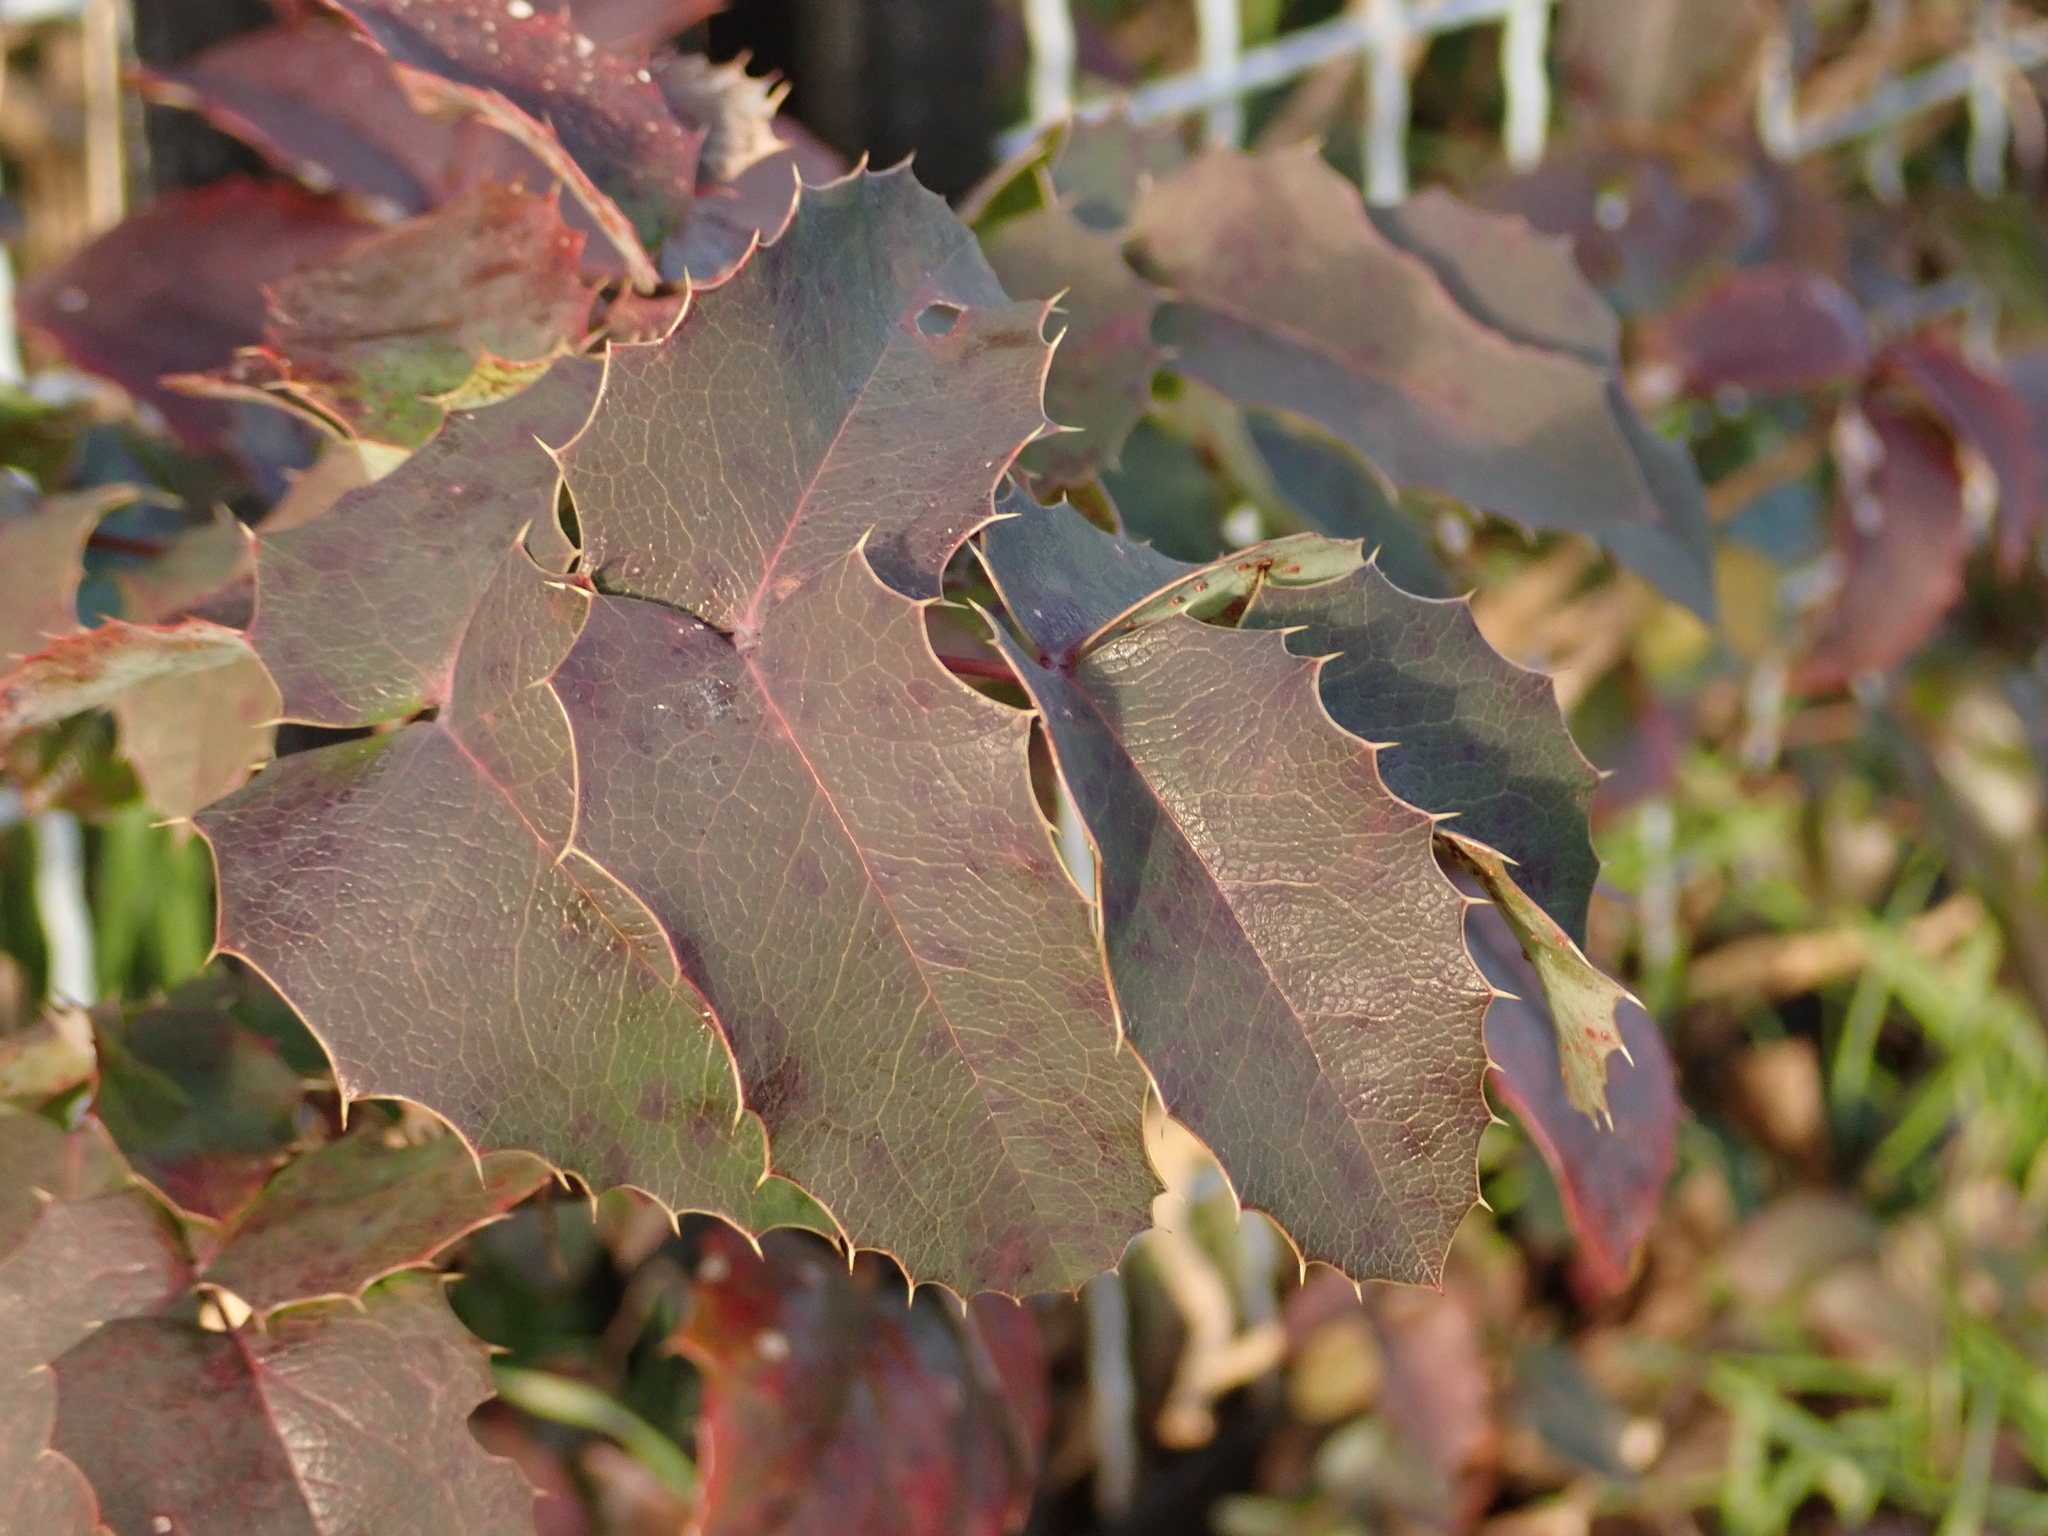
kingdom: Plantae
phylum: Tracheophyta
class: Magnoliopsida
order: Ranunculales
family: Berberidaceae
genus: Mahonia
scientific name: Mahonia aquifolium
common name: Oregon-grape
